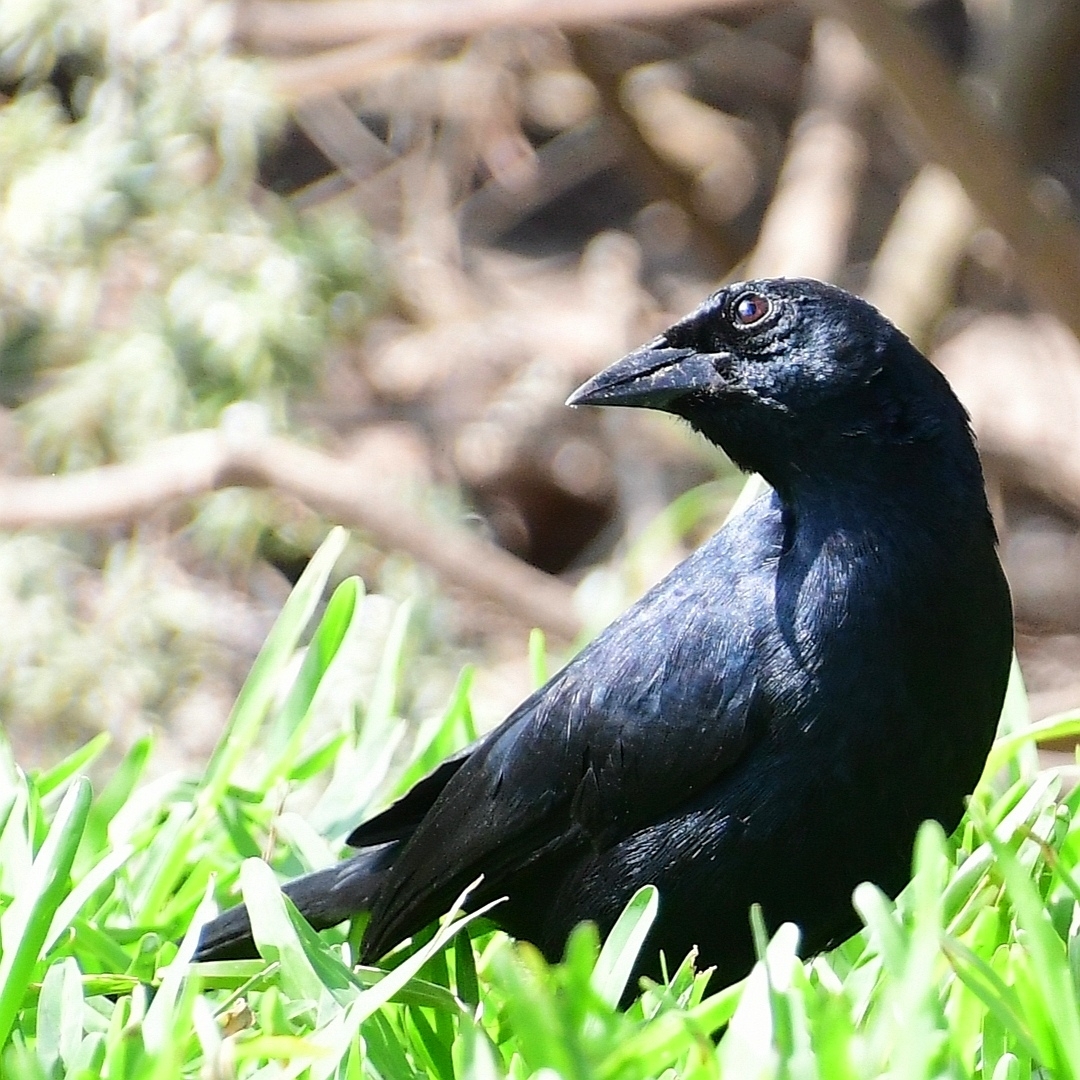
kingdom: Animalia
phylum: Chordata
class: Aves
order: Passeriformes
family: Icteridae
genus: Dives
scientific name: Dives warczewiczi
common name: Scrub blackbird
